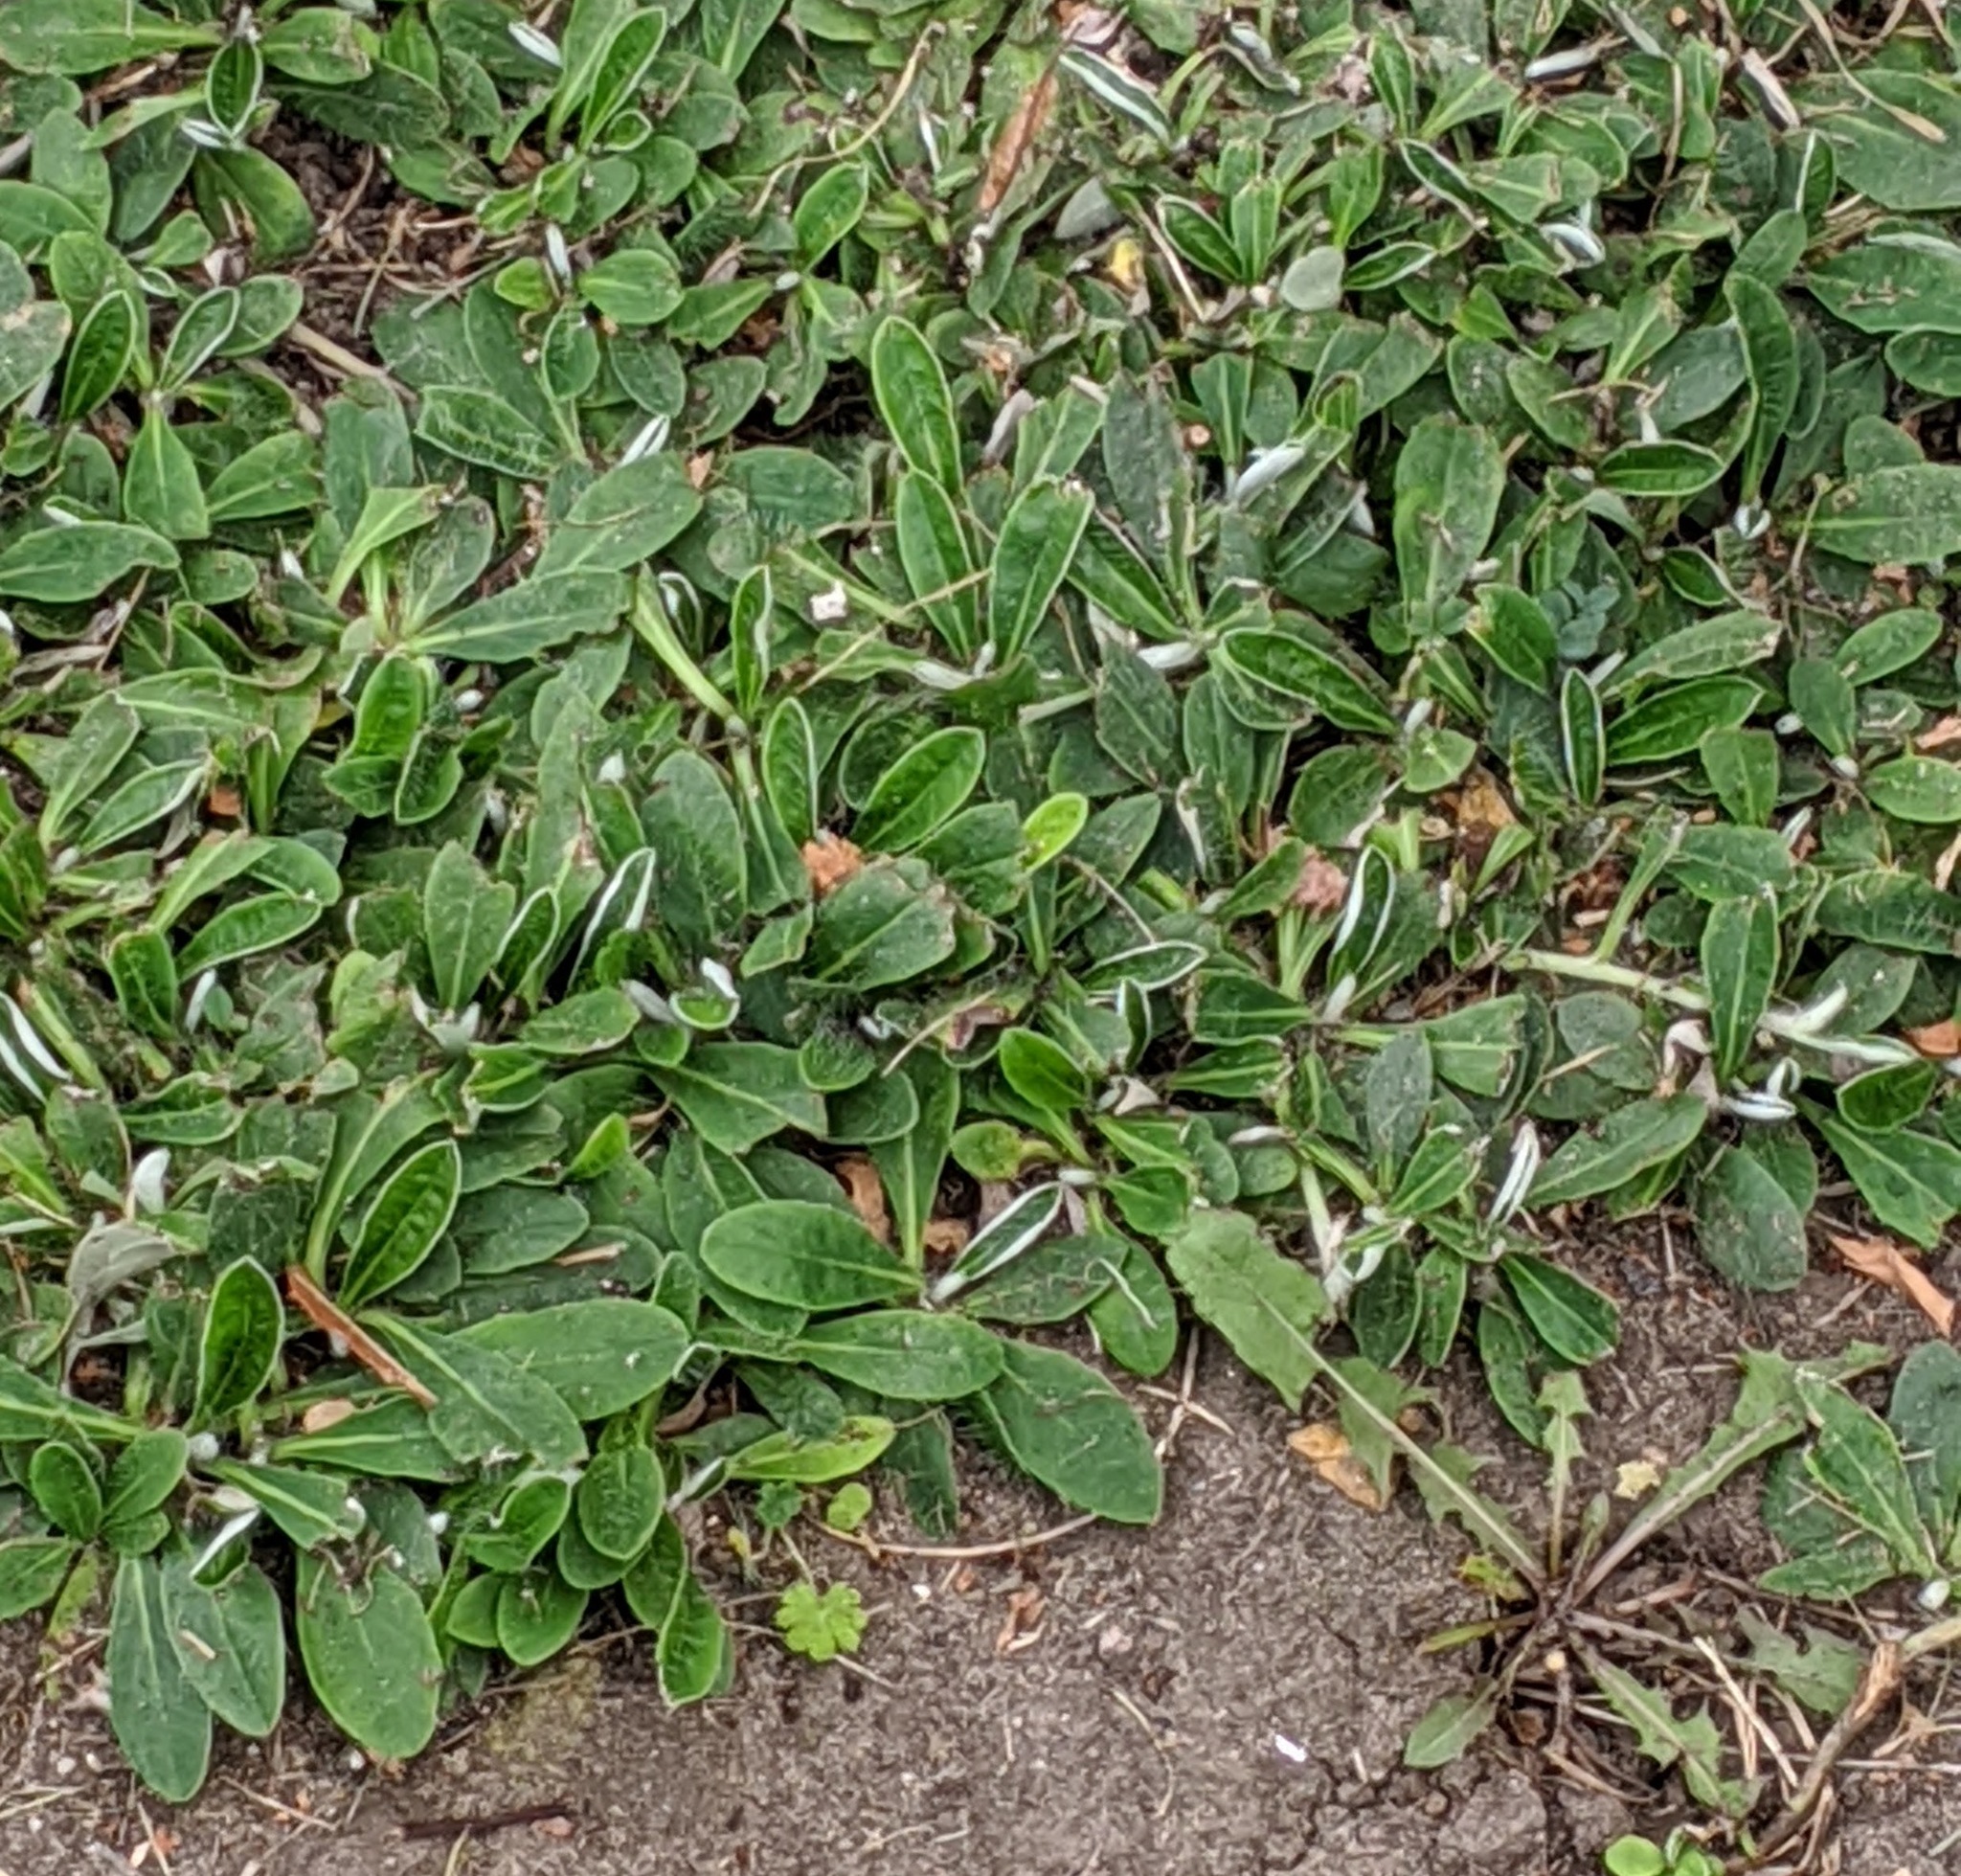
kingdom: Plantae
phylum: Tracheophyta
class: Magnoliopsida
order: Asterales
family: Asteraceae
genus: Pilosella
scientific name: Pilosella officinarum
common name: Mouse-ear hawkweed
